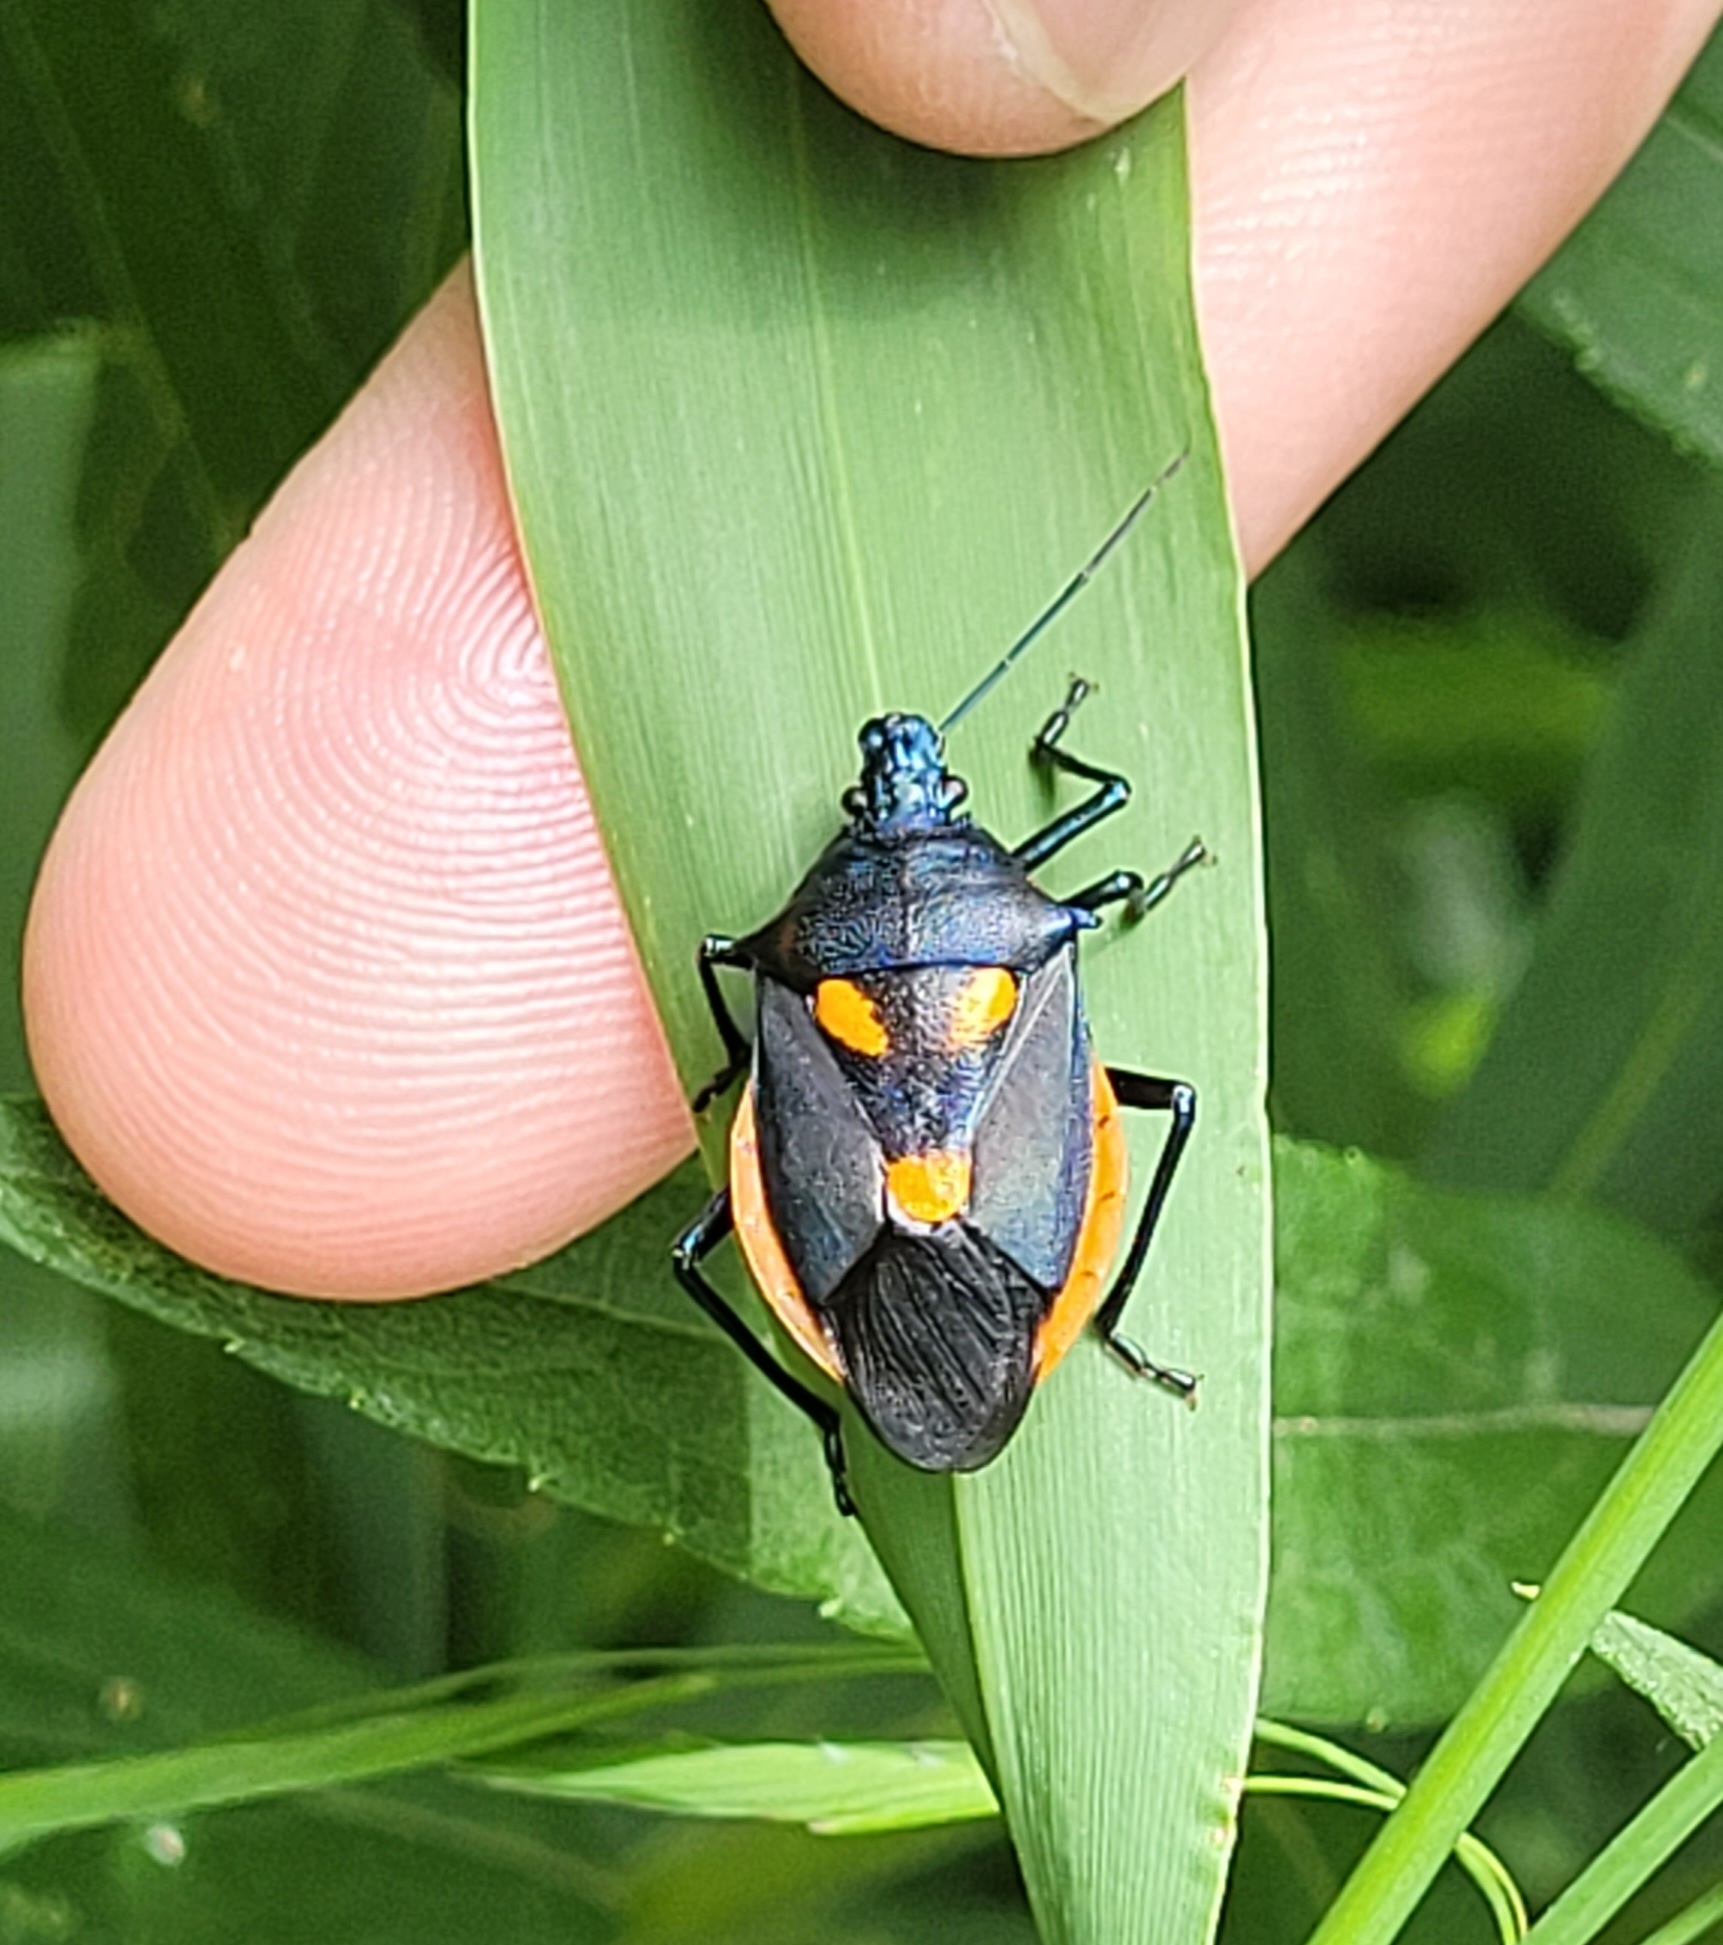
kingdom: Animalia
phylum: Arthropoda
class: Insecta
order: Hemiptera
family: Pentatomidae
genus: Euthyrhynchus
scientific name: Euthyrhynchus floridanus
